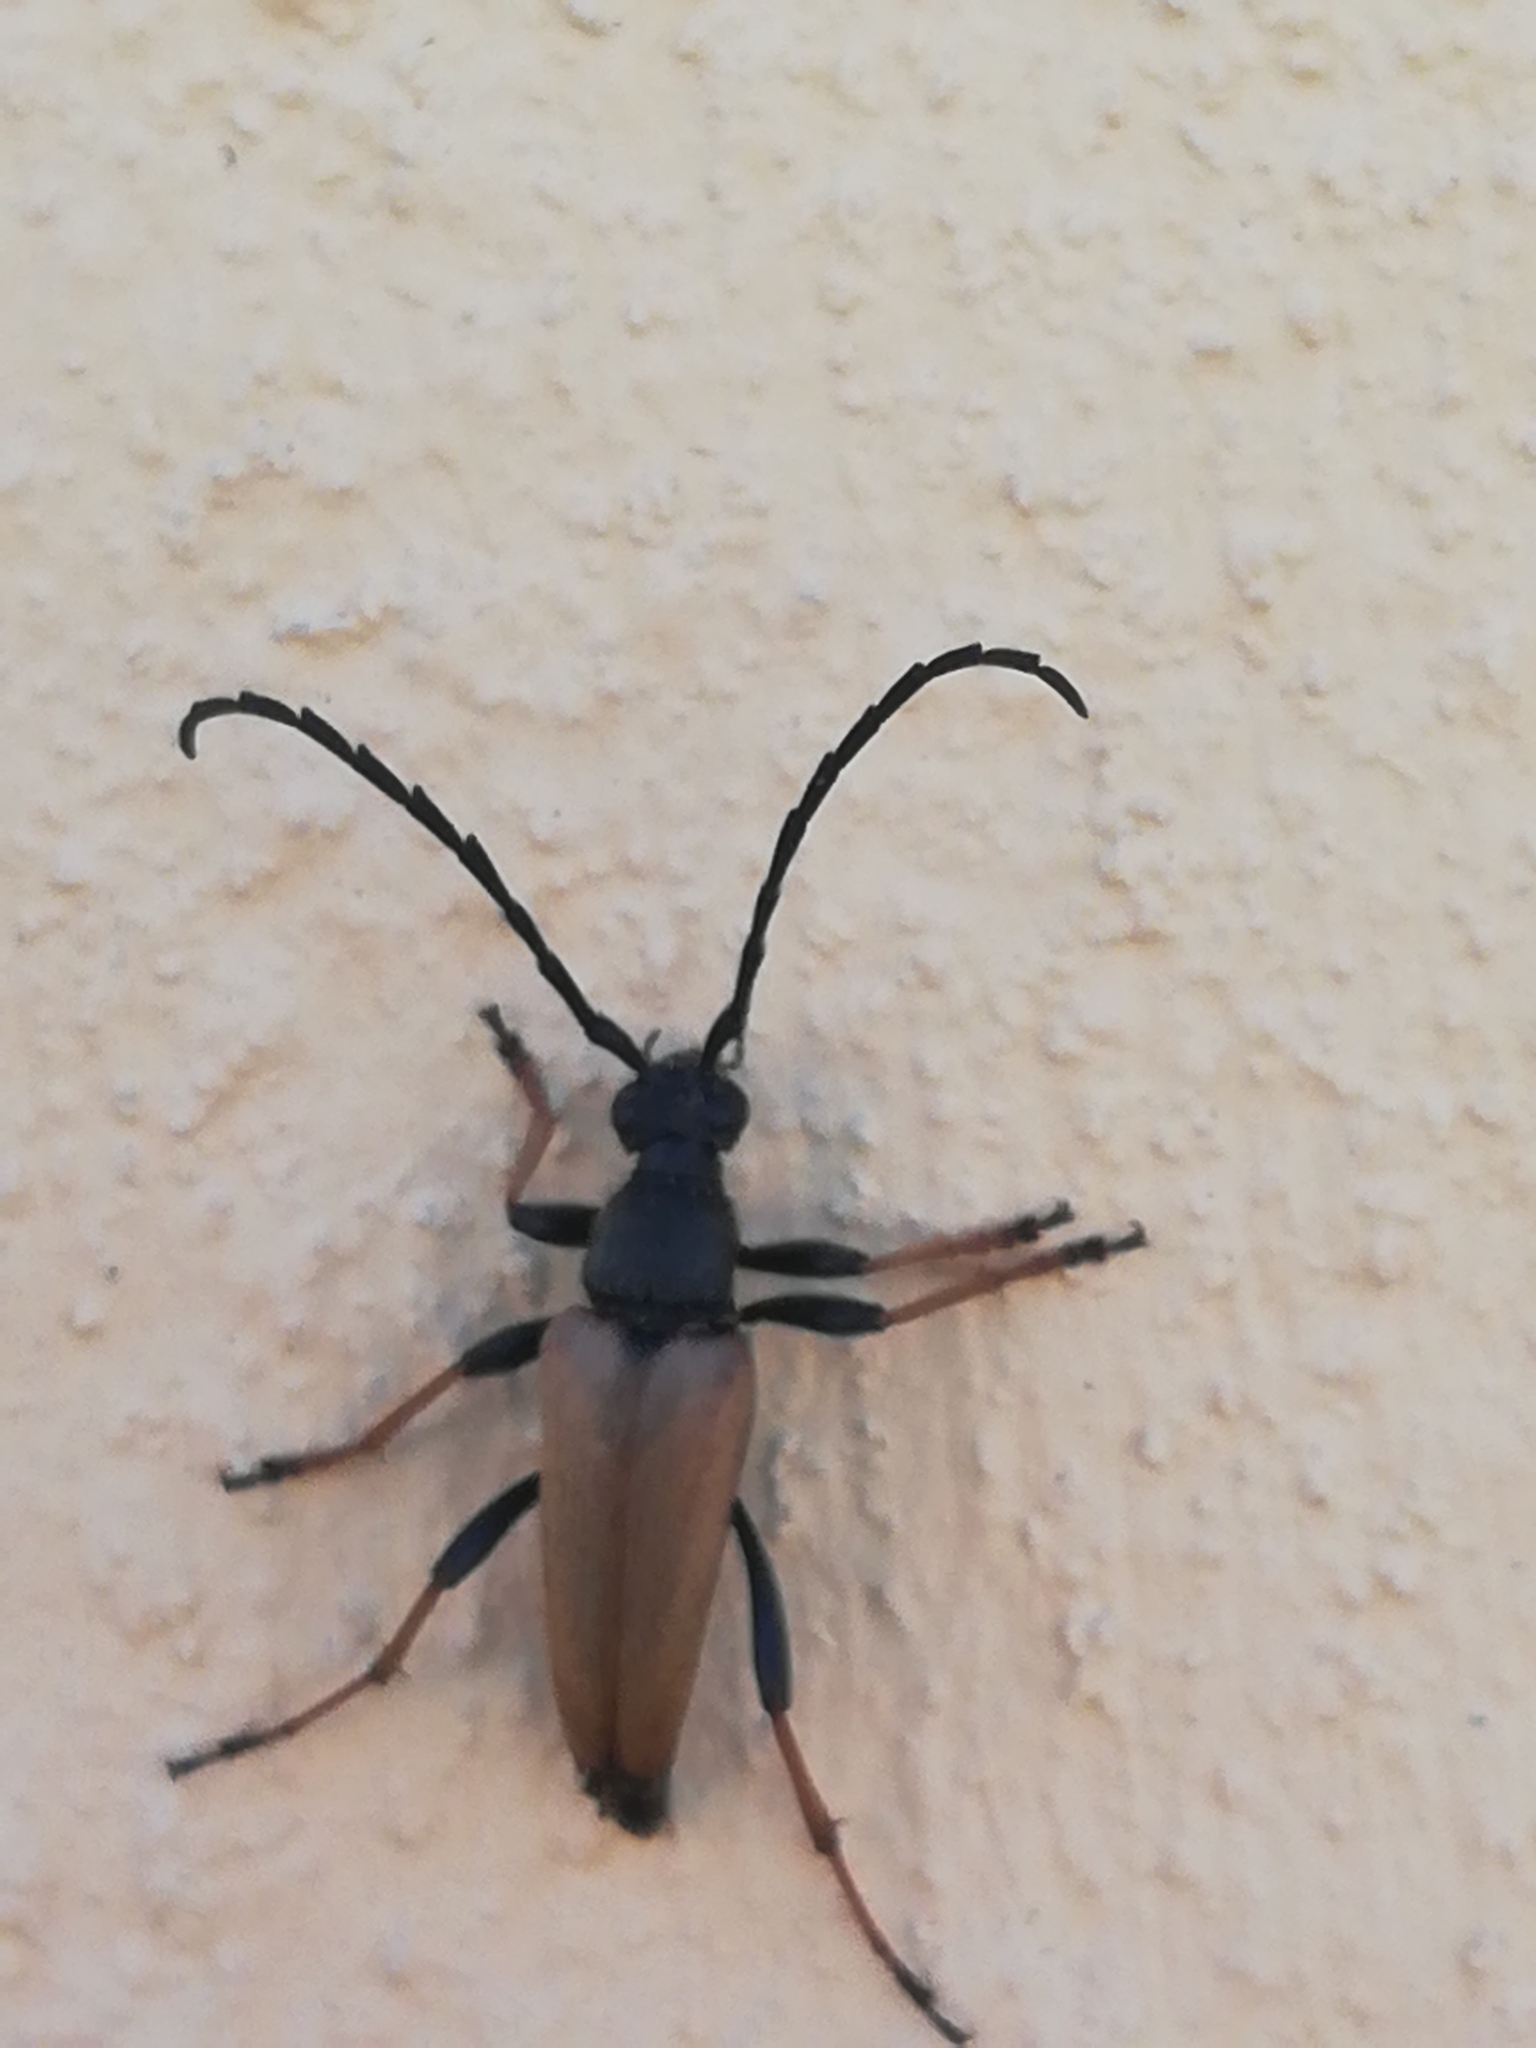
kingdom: Animalia
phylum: Arthropoda
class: Insecta
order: Coleoptera
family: Cerambycidae
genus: Stictoleptura
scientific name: Stictoleptura rubra
